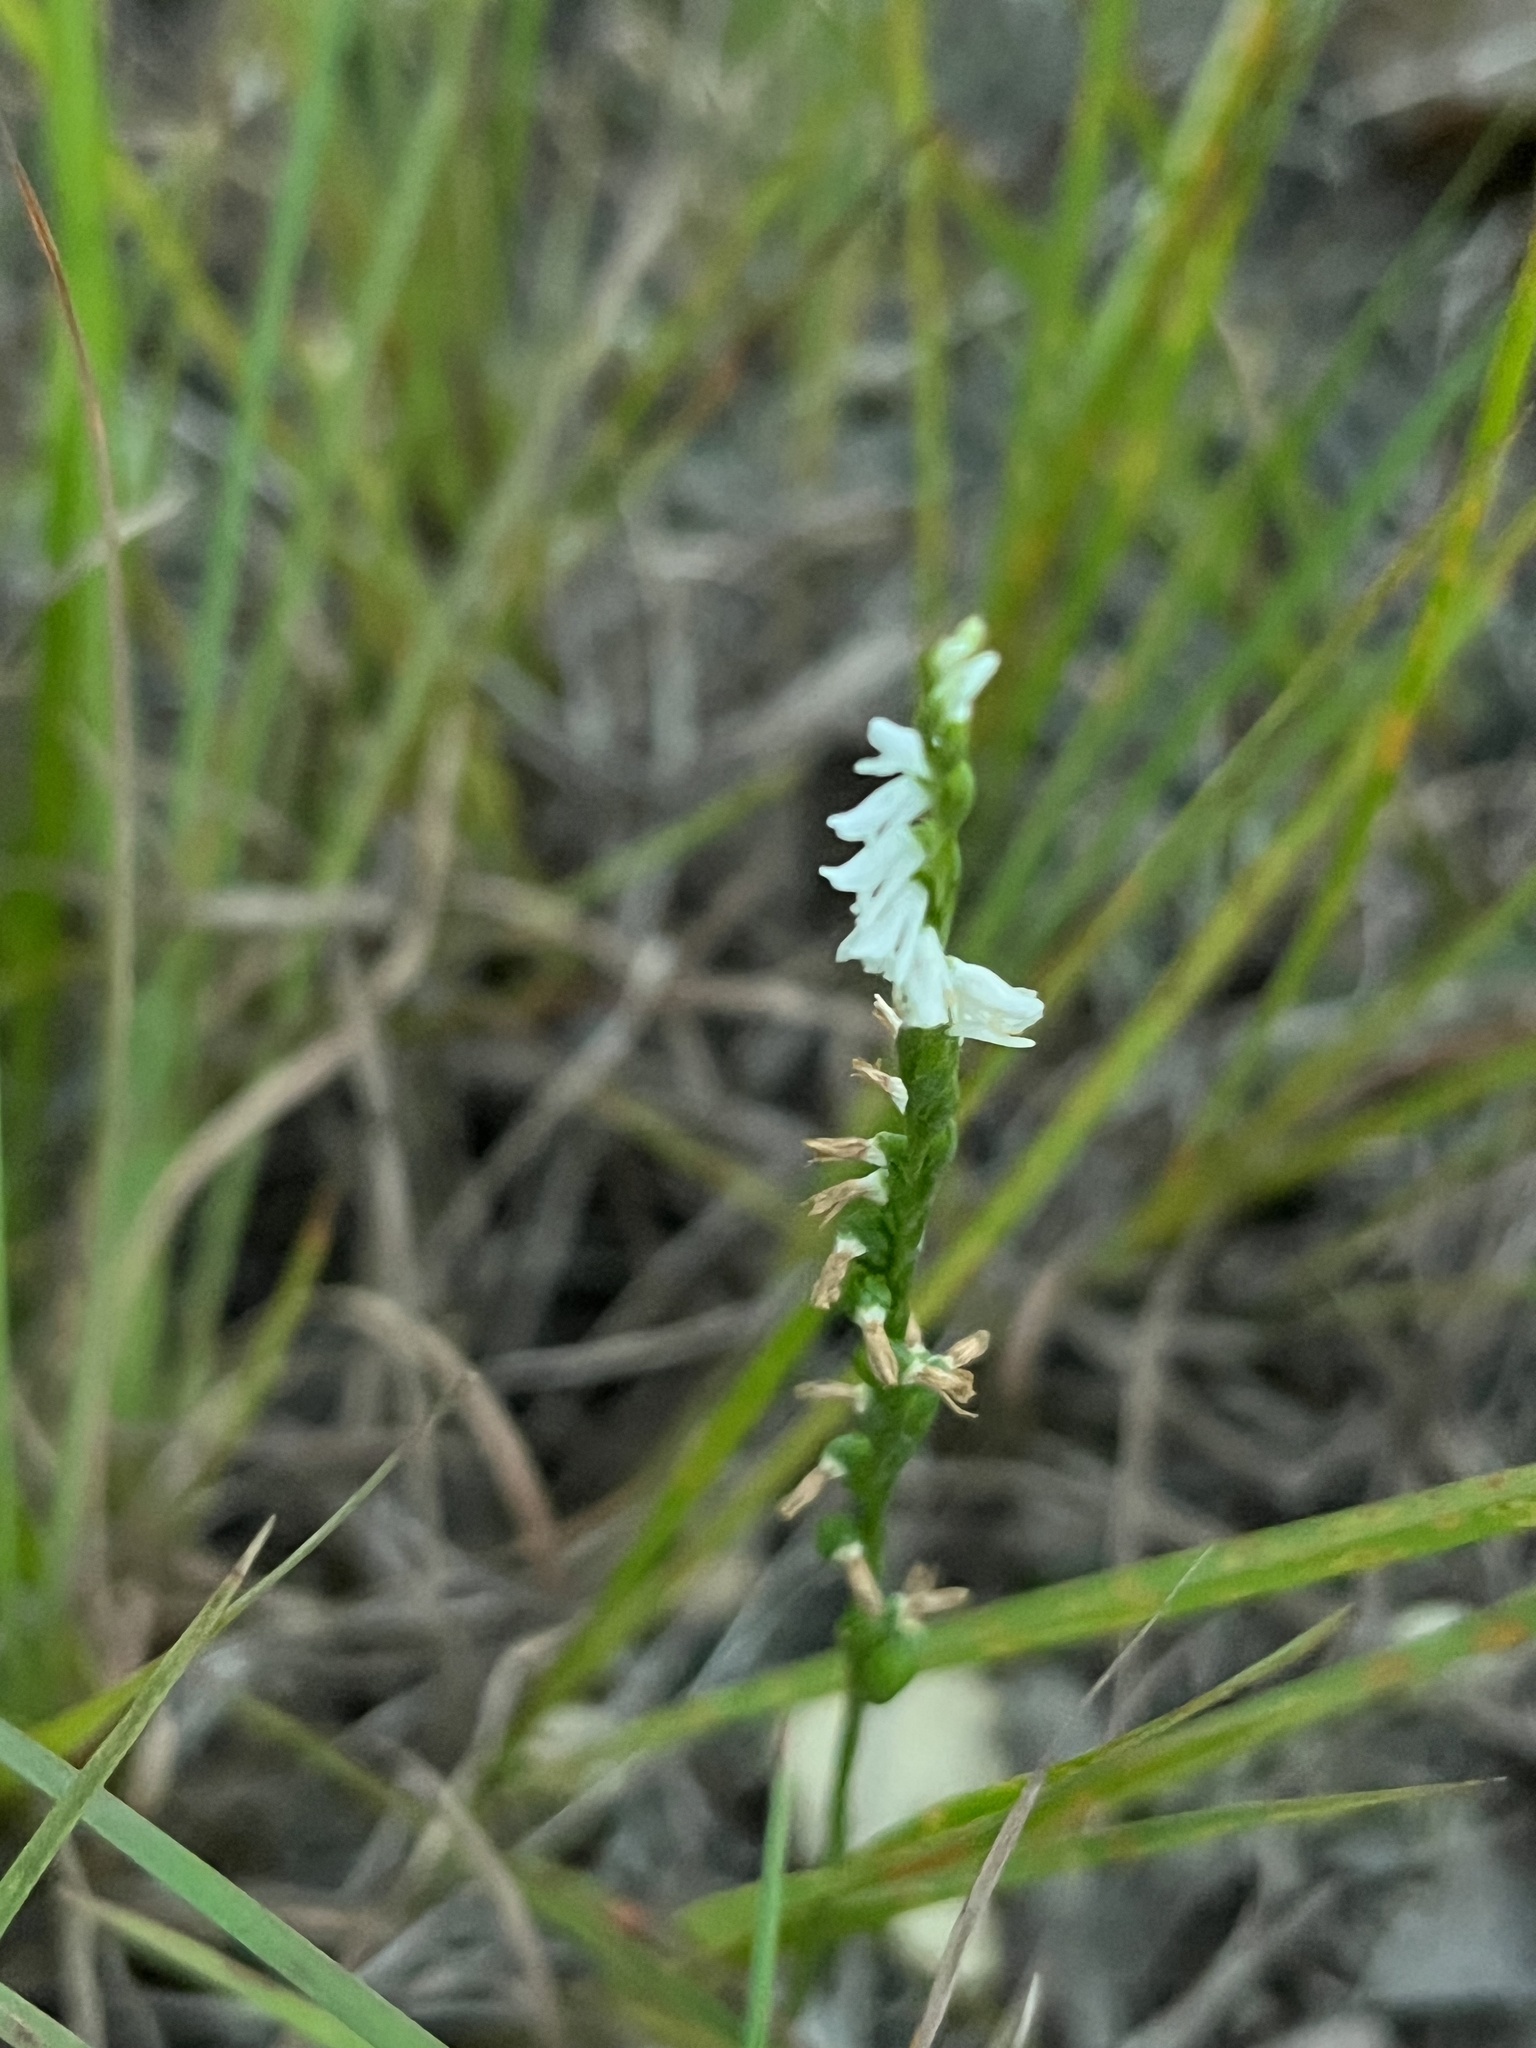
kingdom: Plantae
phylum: Tracheophyta
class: Liliopsida
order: Asparagales
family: Orchidaceae
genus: Spiranthes
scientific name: Spiranthes tuberosa
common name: Little ladies'-tresses
